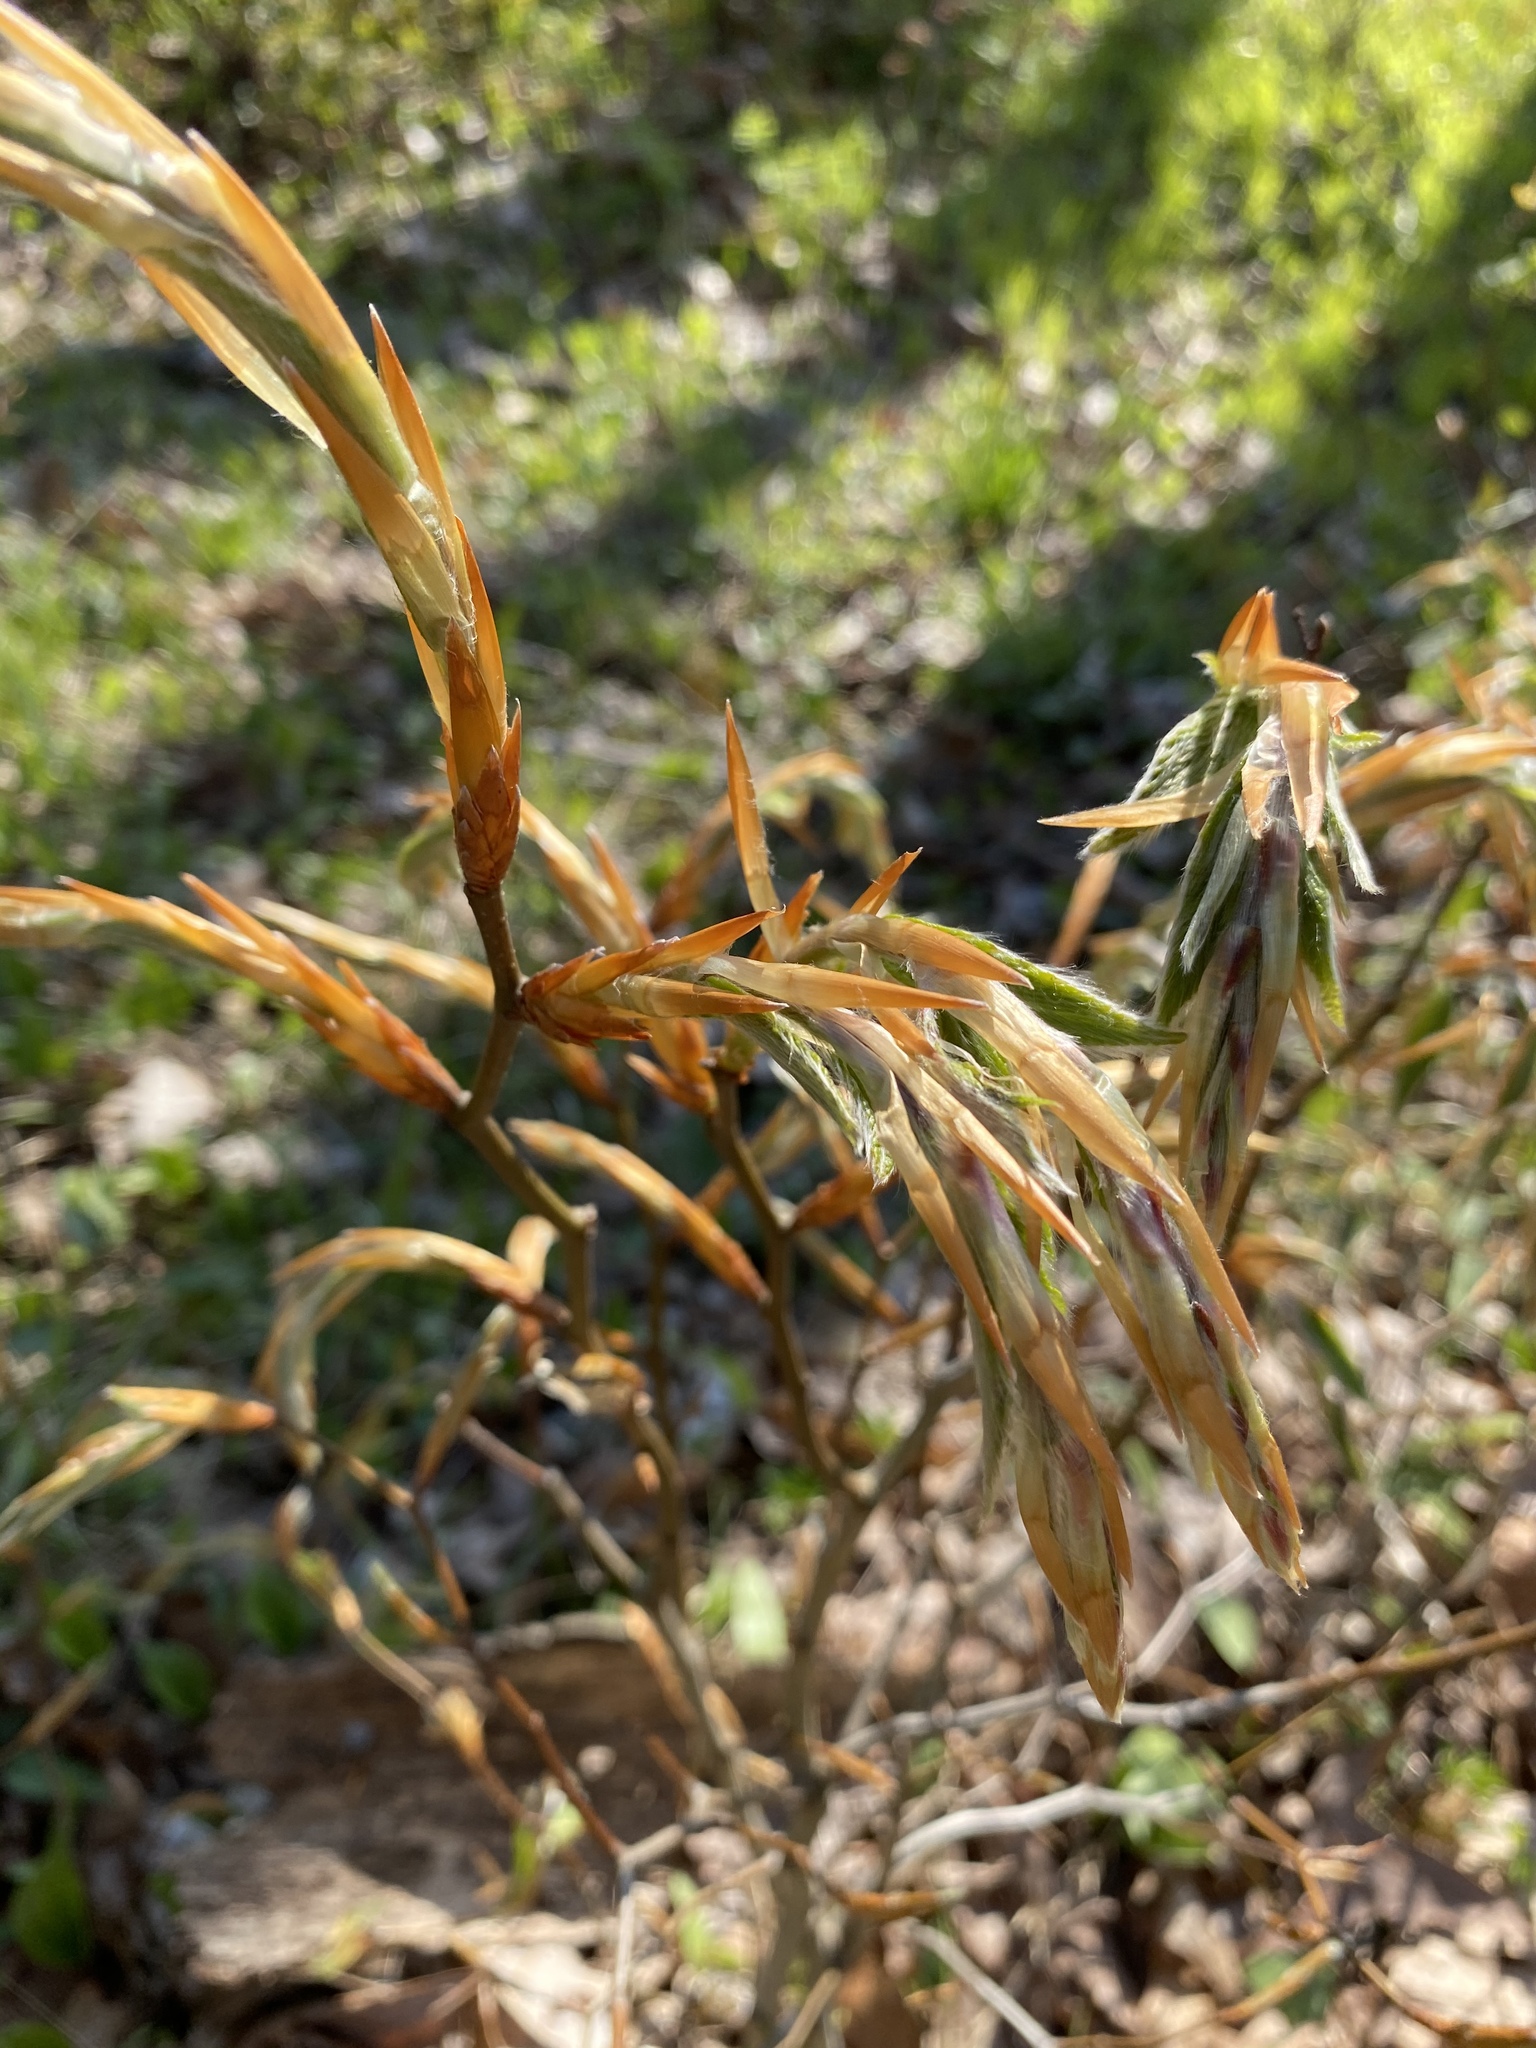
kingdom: Plantae
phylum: Tracheophyta
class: Magnoliopsida
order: Fagales
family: Fagaceae
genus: Fagus
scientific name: Fagus grandifolia
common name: American beech
